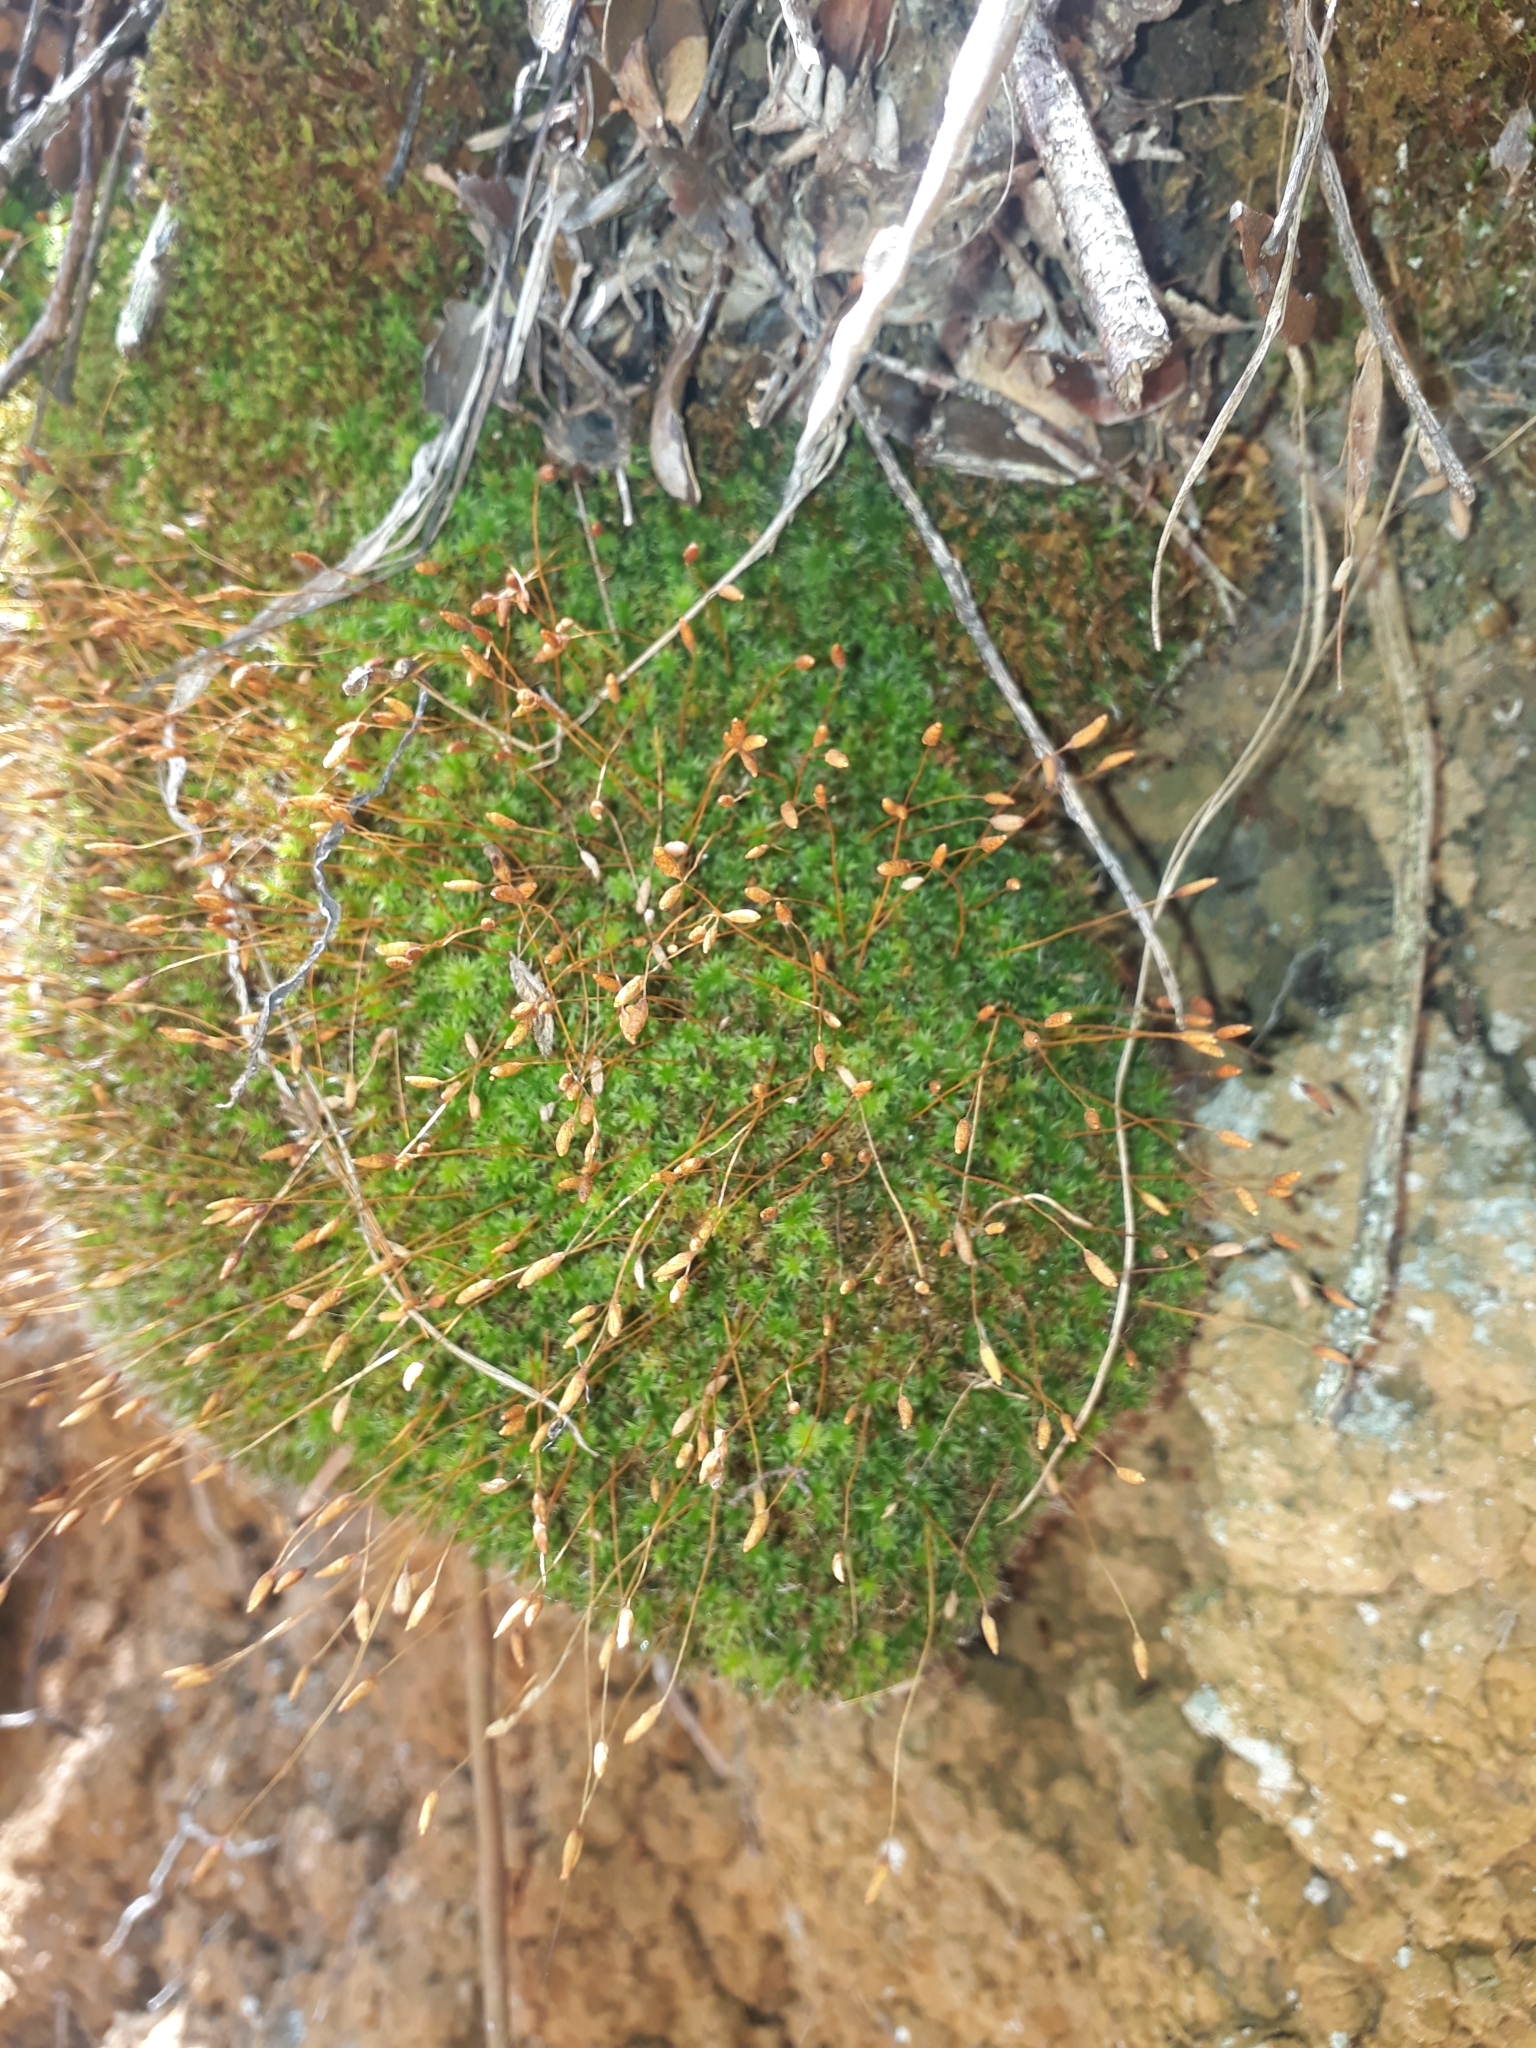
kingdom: Plantae
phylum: Bryophyta
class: Bryopsida
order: Bryales
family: Leptostomataceae
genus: Leptostomum
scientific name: Leptostomum macrocarpon
